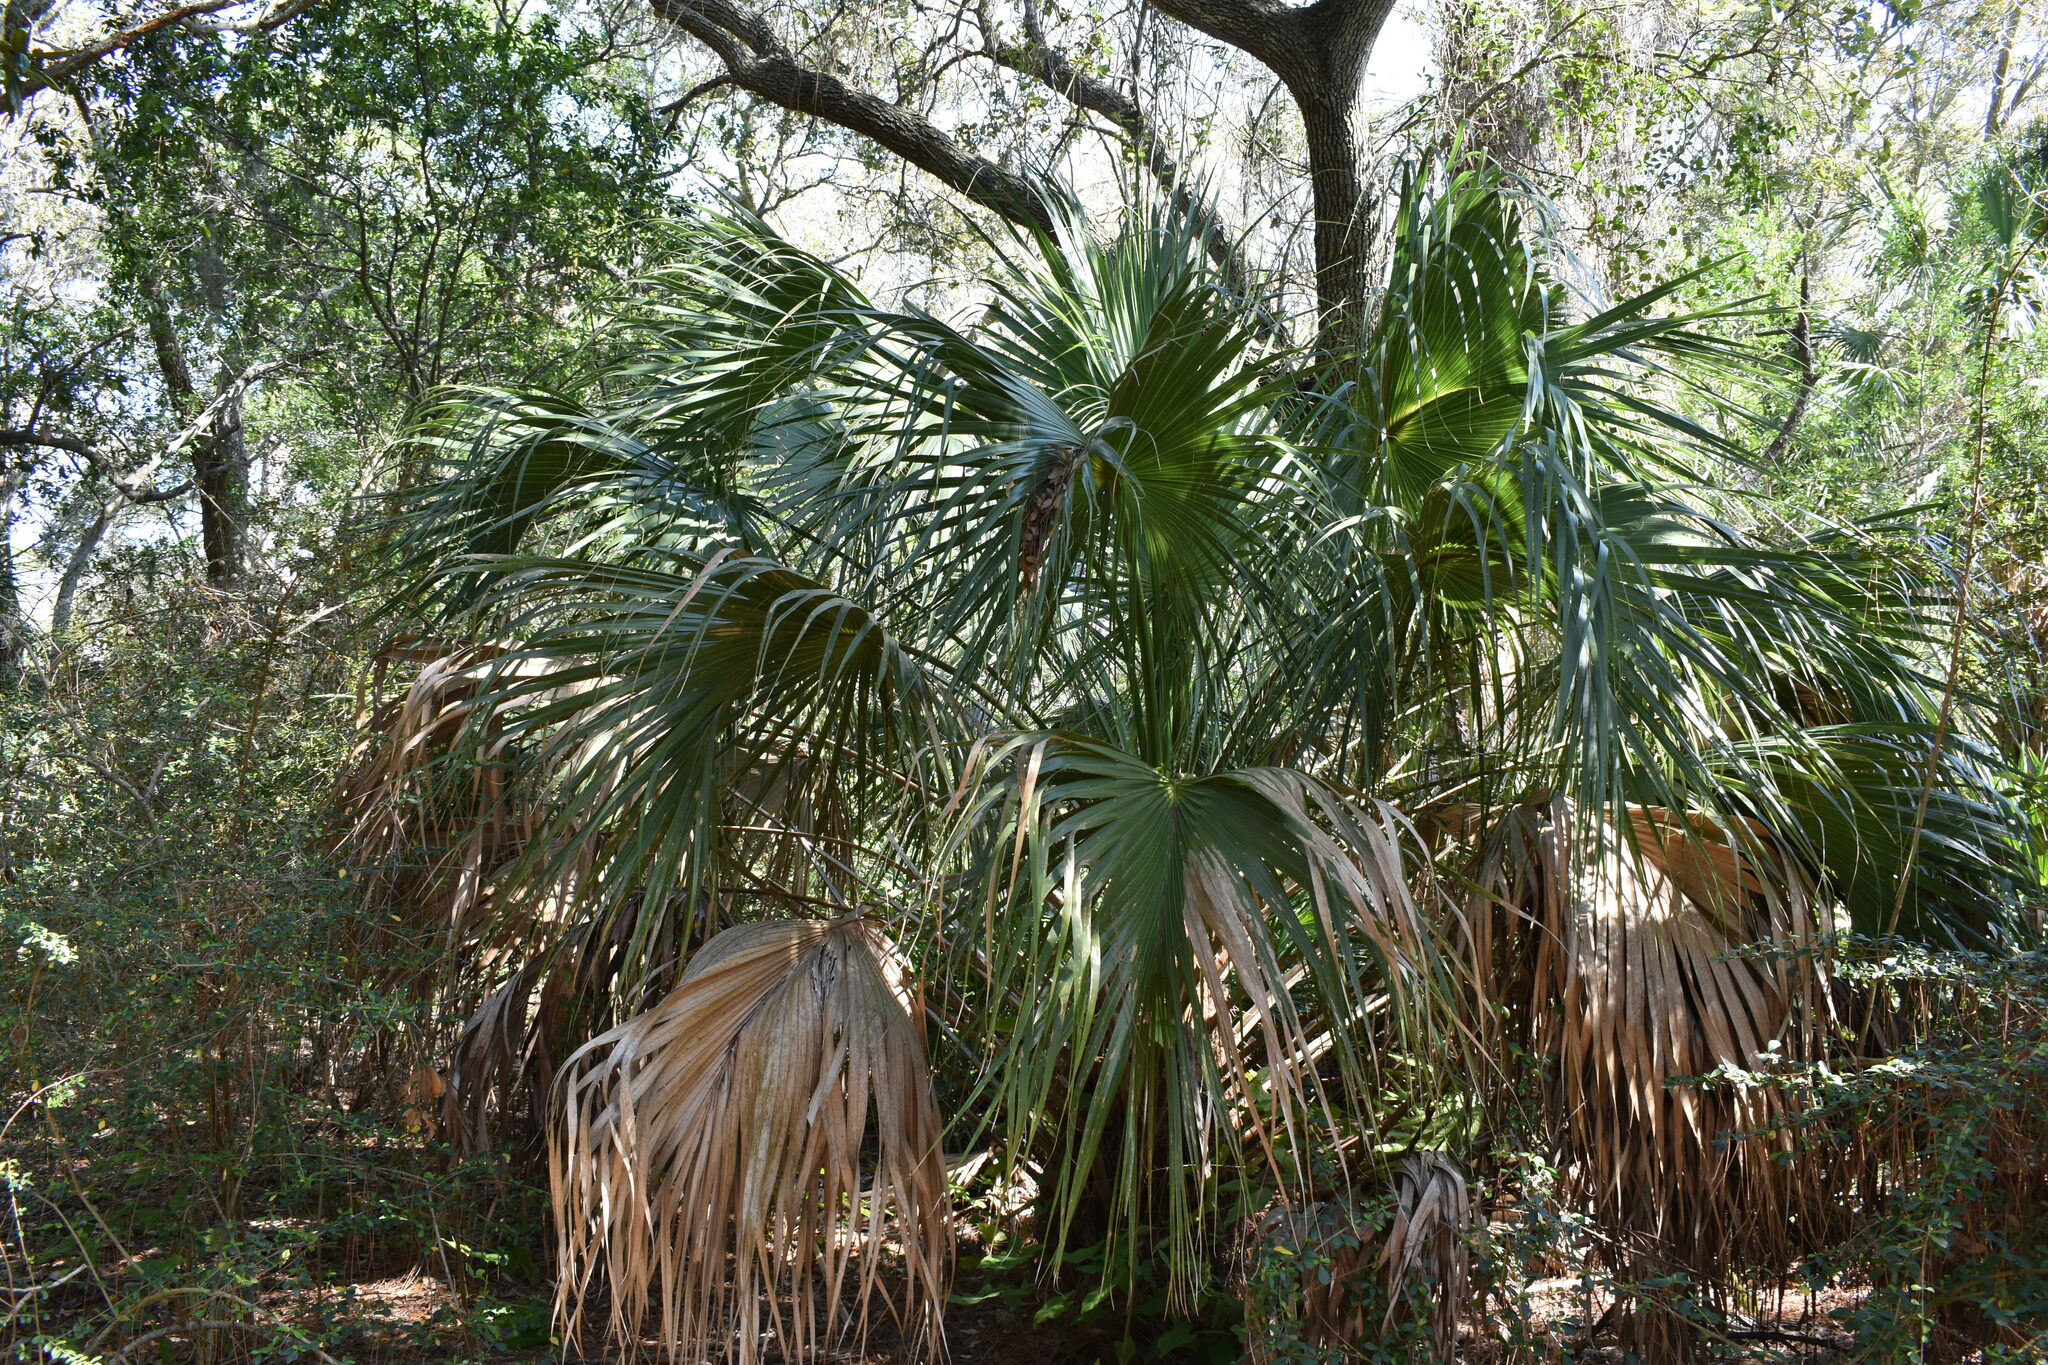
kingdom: Plantae
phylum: Tracheophyta
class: Liliopsida
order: Arecales
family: Arecaceae
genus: Sabal
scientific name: Sabal palmetto
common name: Blue palmetto
